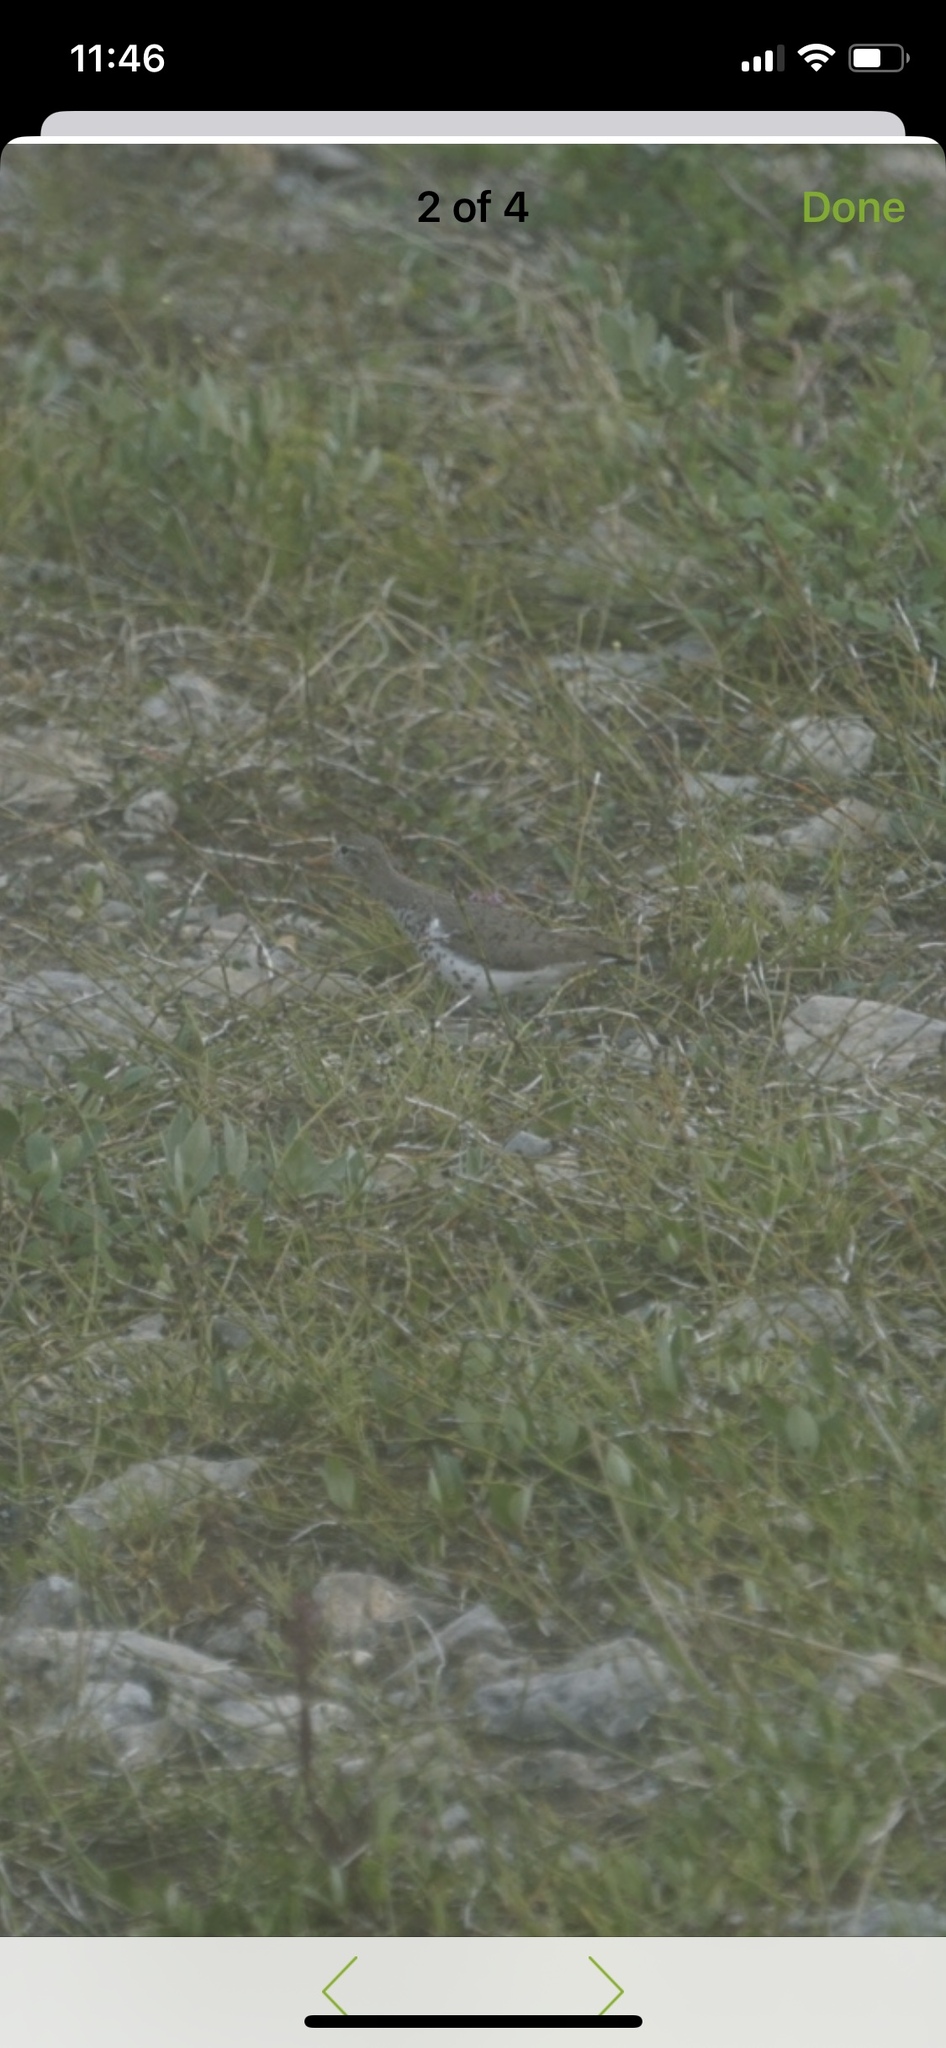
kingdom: Animalia
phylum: Chordata
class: Aves
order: Charadriiformes
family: Scolopacidae
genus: Actitis
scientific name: Actitis macularius
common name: Spotted sandpiper
